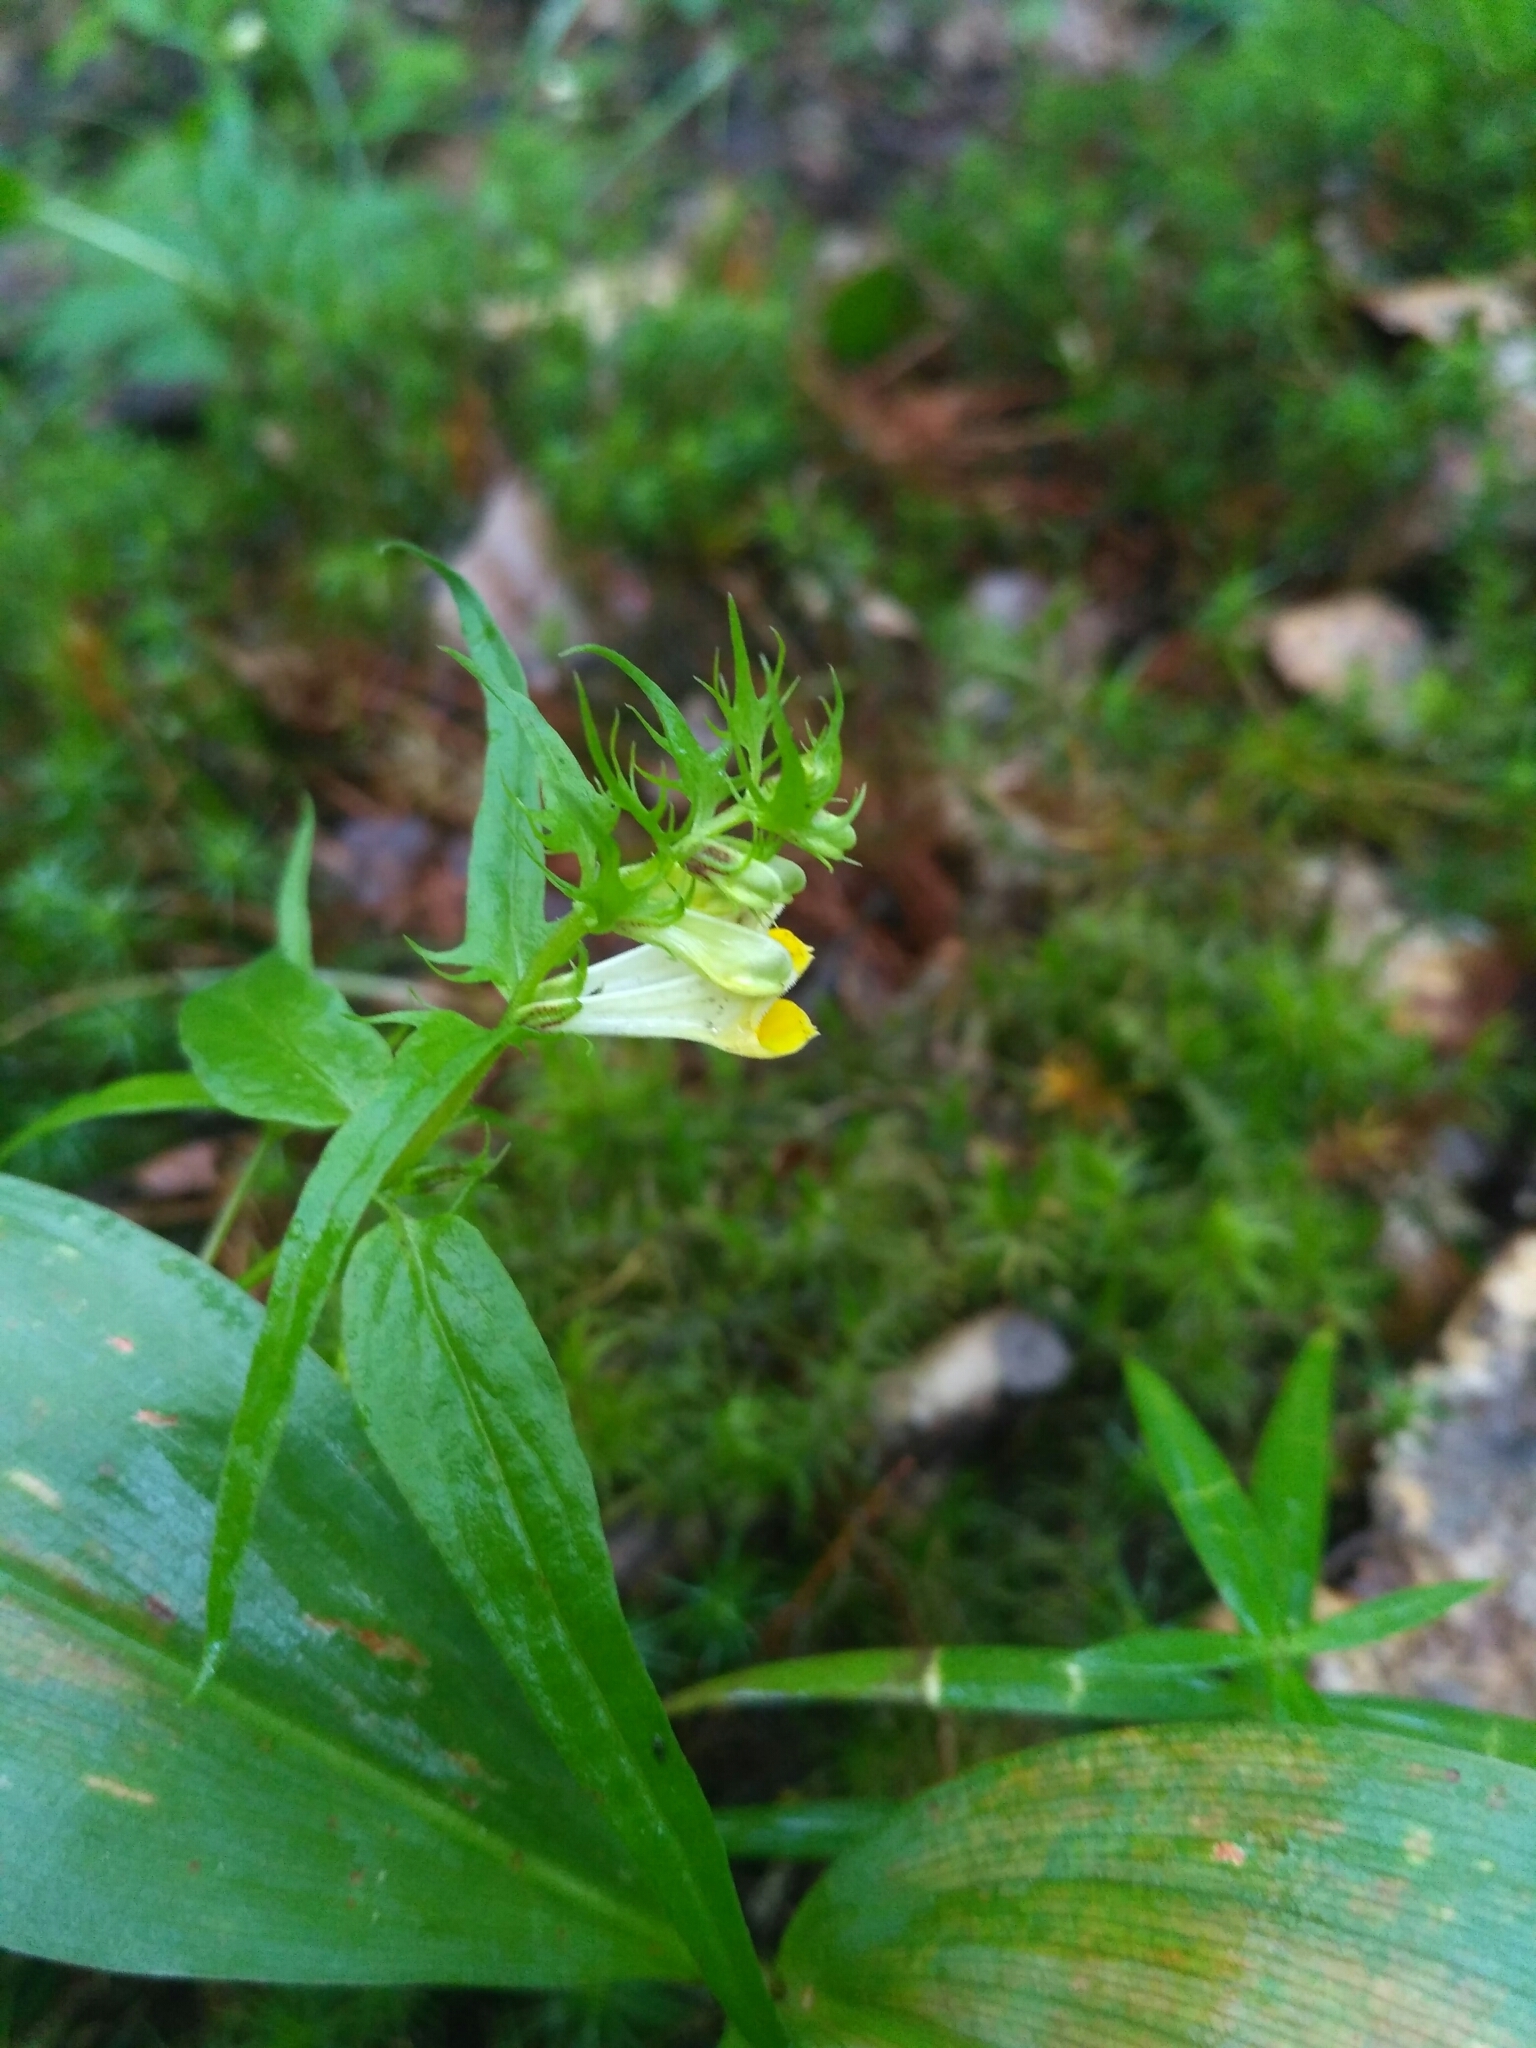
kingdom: Plantae
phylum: Tracheophyta
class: Magnoliopsida
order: Lamiales
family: Orobanchaceae
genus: Melampyrum
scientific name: Melampyrum pratense
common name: Common cow-wheat
